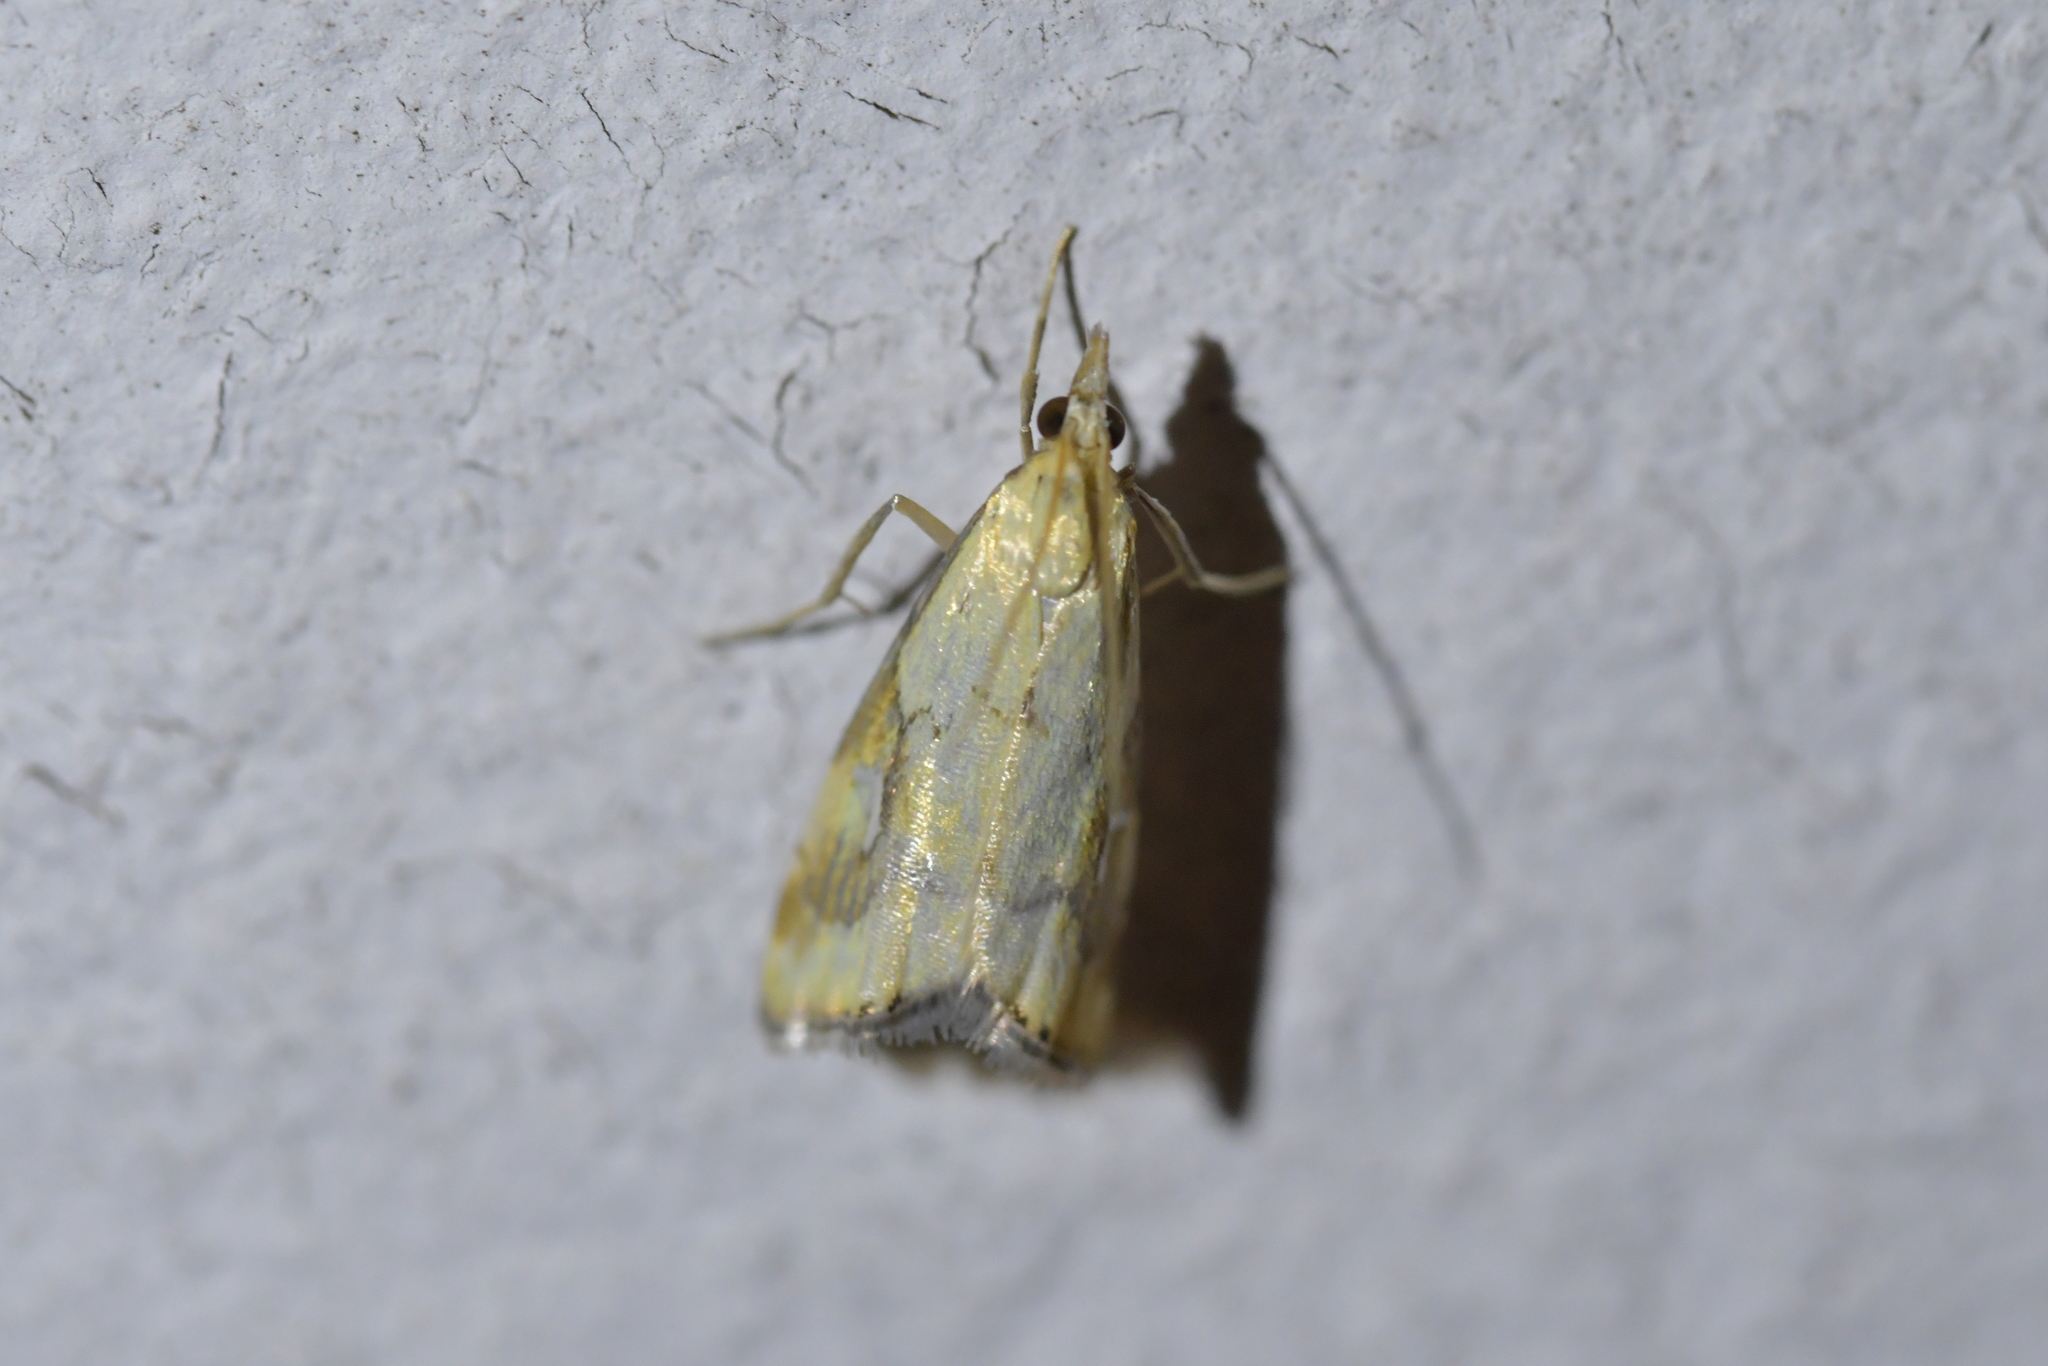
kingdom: Animalia
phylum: Arthropoda
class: Insecta
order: Lepidoptera
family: Crambidae
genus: Glaucocharis
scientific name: Glaucocharis lepidella
